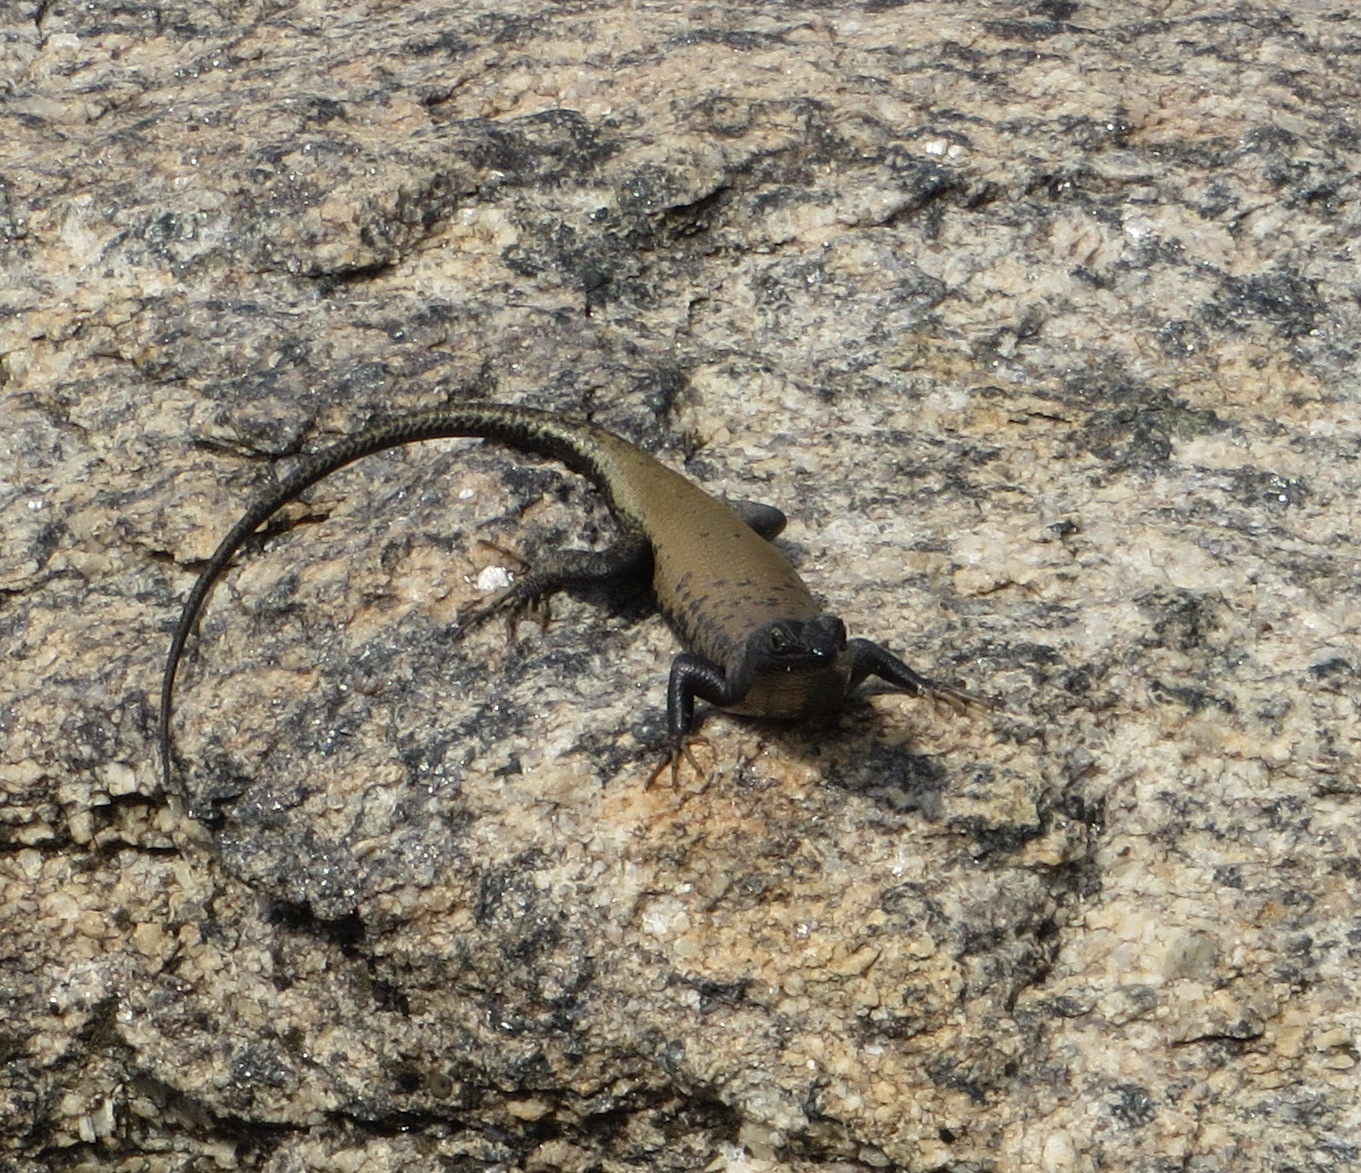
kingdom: Animalia
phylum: Chordata
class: Squamata
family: Scincidae
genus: Trachylepis
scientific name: Trachylepis sulcata
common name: Western rock skink
